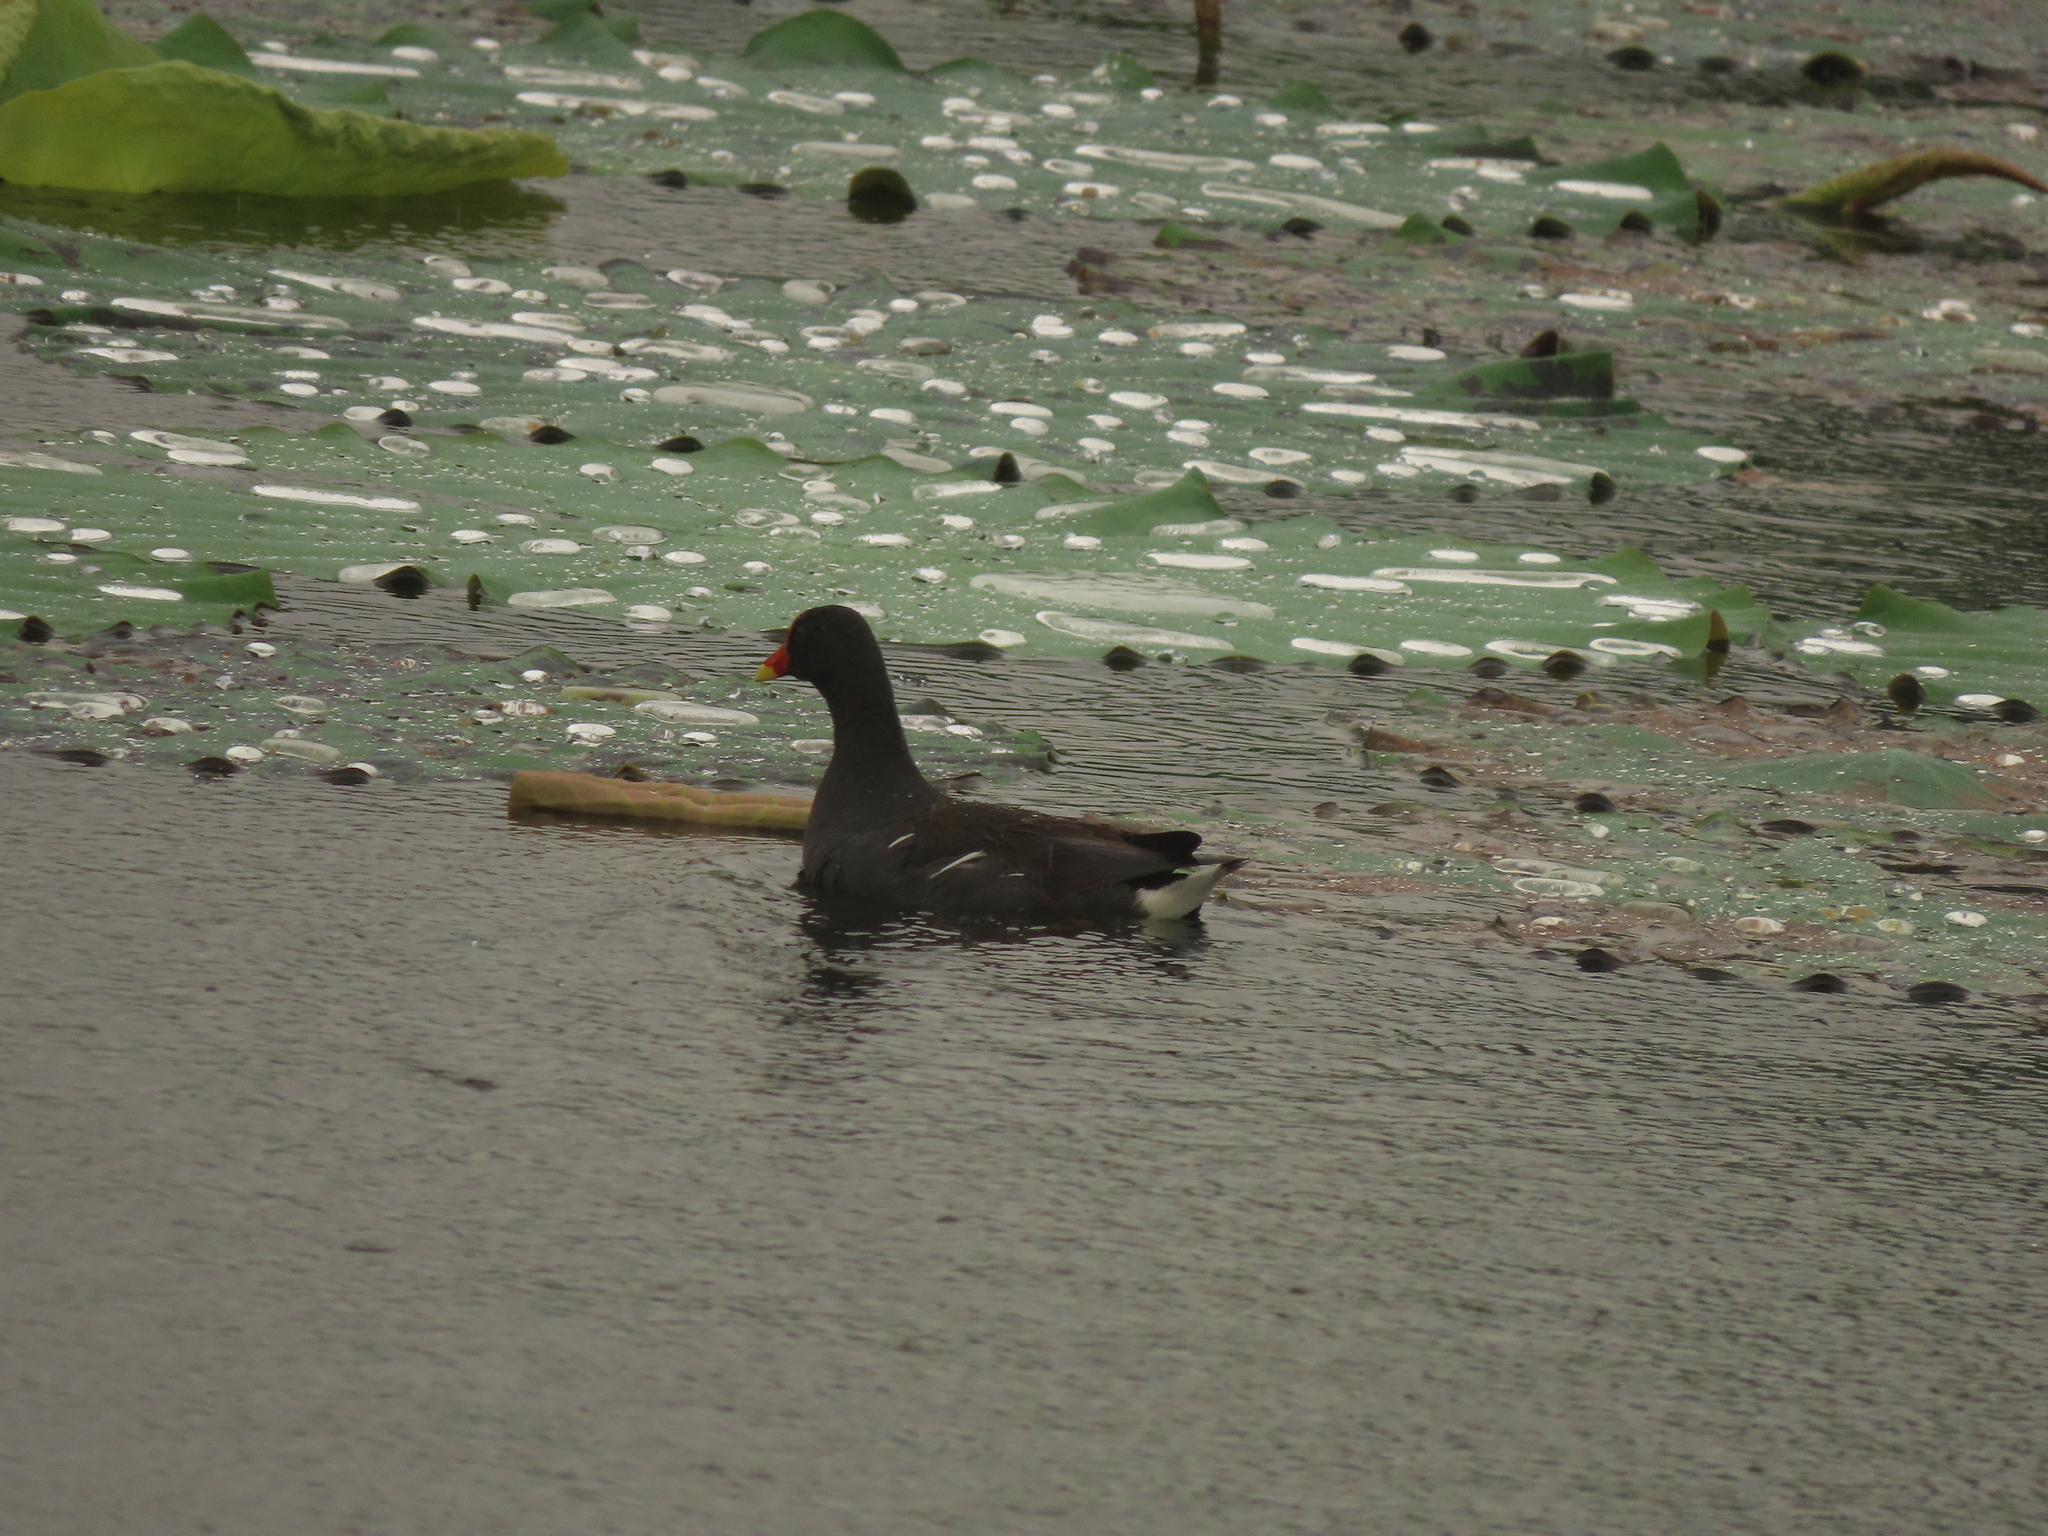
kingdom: Animalia
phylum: Chordata
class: Aves
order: Gruiformes
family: Rallidae
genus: Gallinula
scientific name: Gallinula chloropus
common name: Common moorhen
